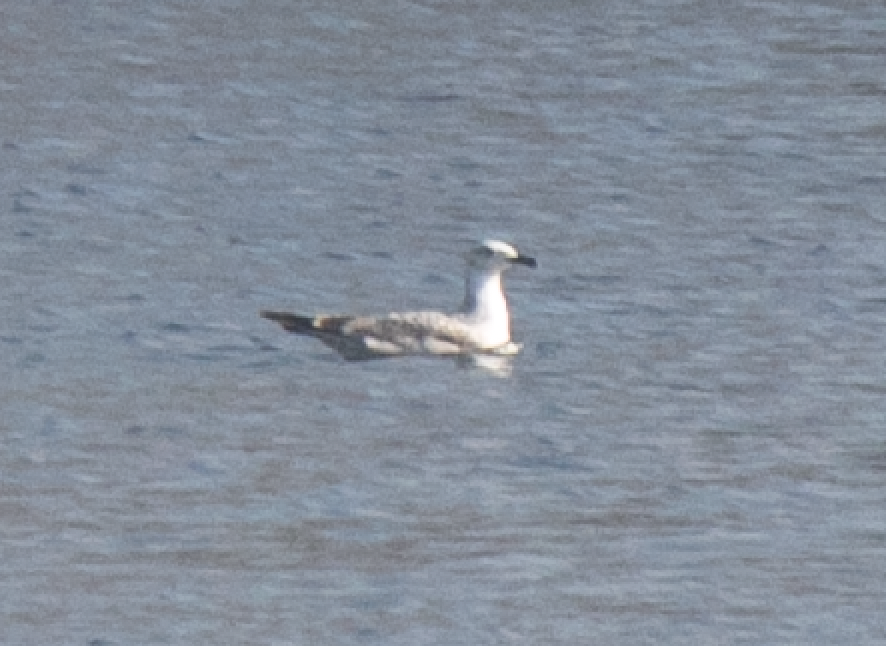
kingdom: Animalia
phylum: Chordata
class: Aves
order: Charadriiformes
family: Laridae
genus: Larus
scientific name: Larus cachinnans
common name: Caspian gull
